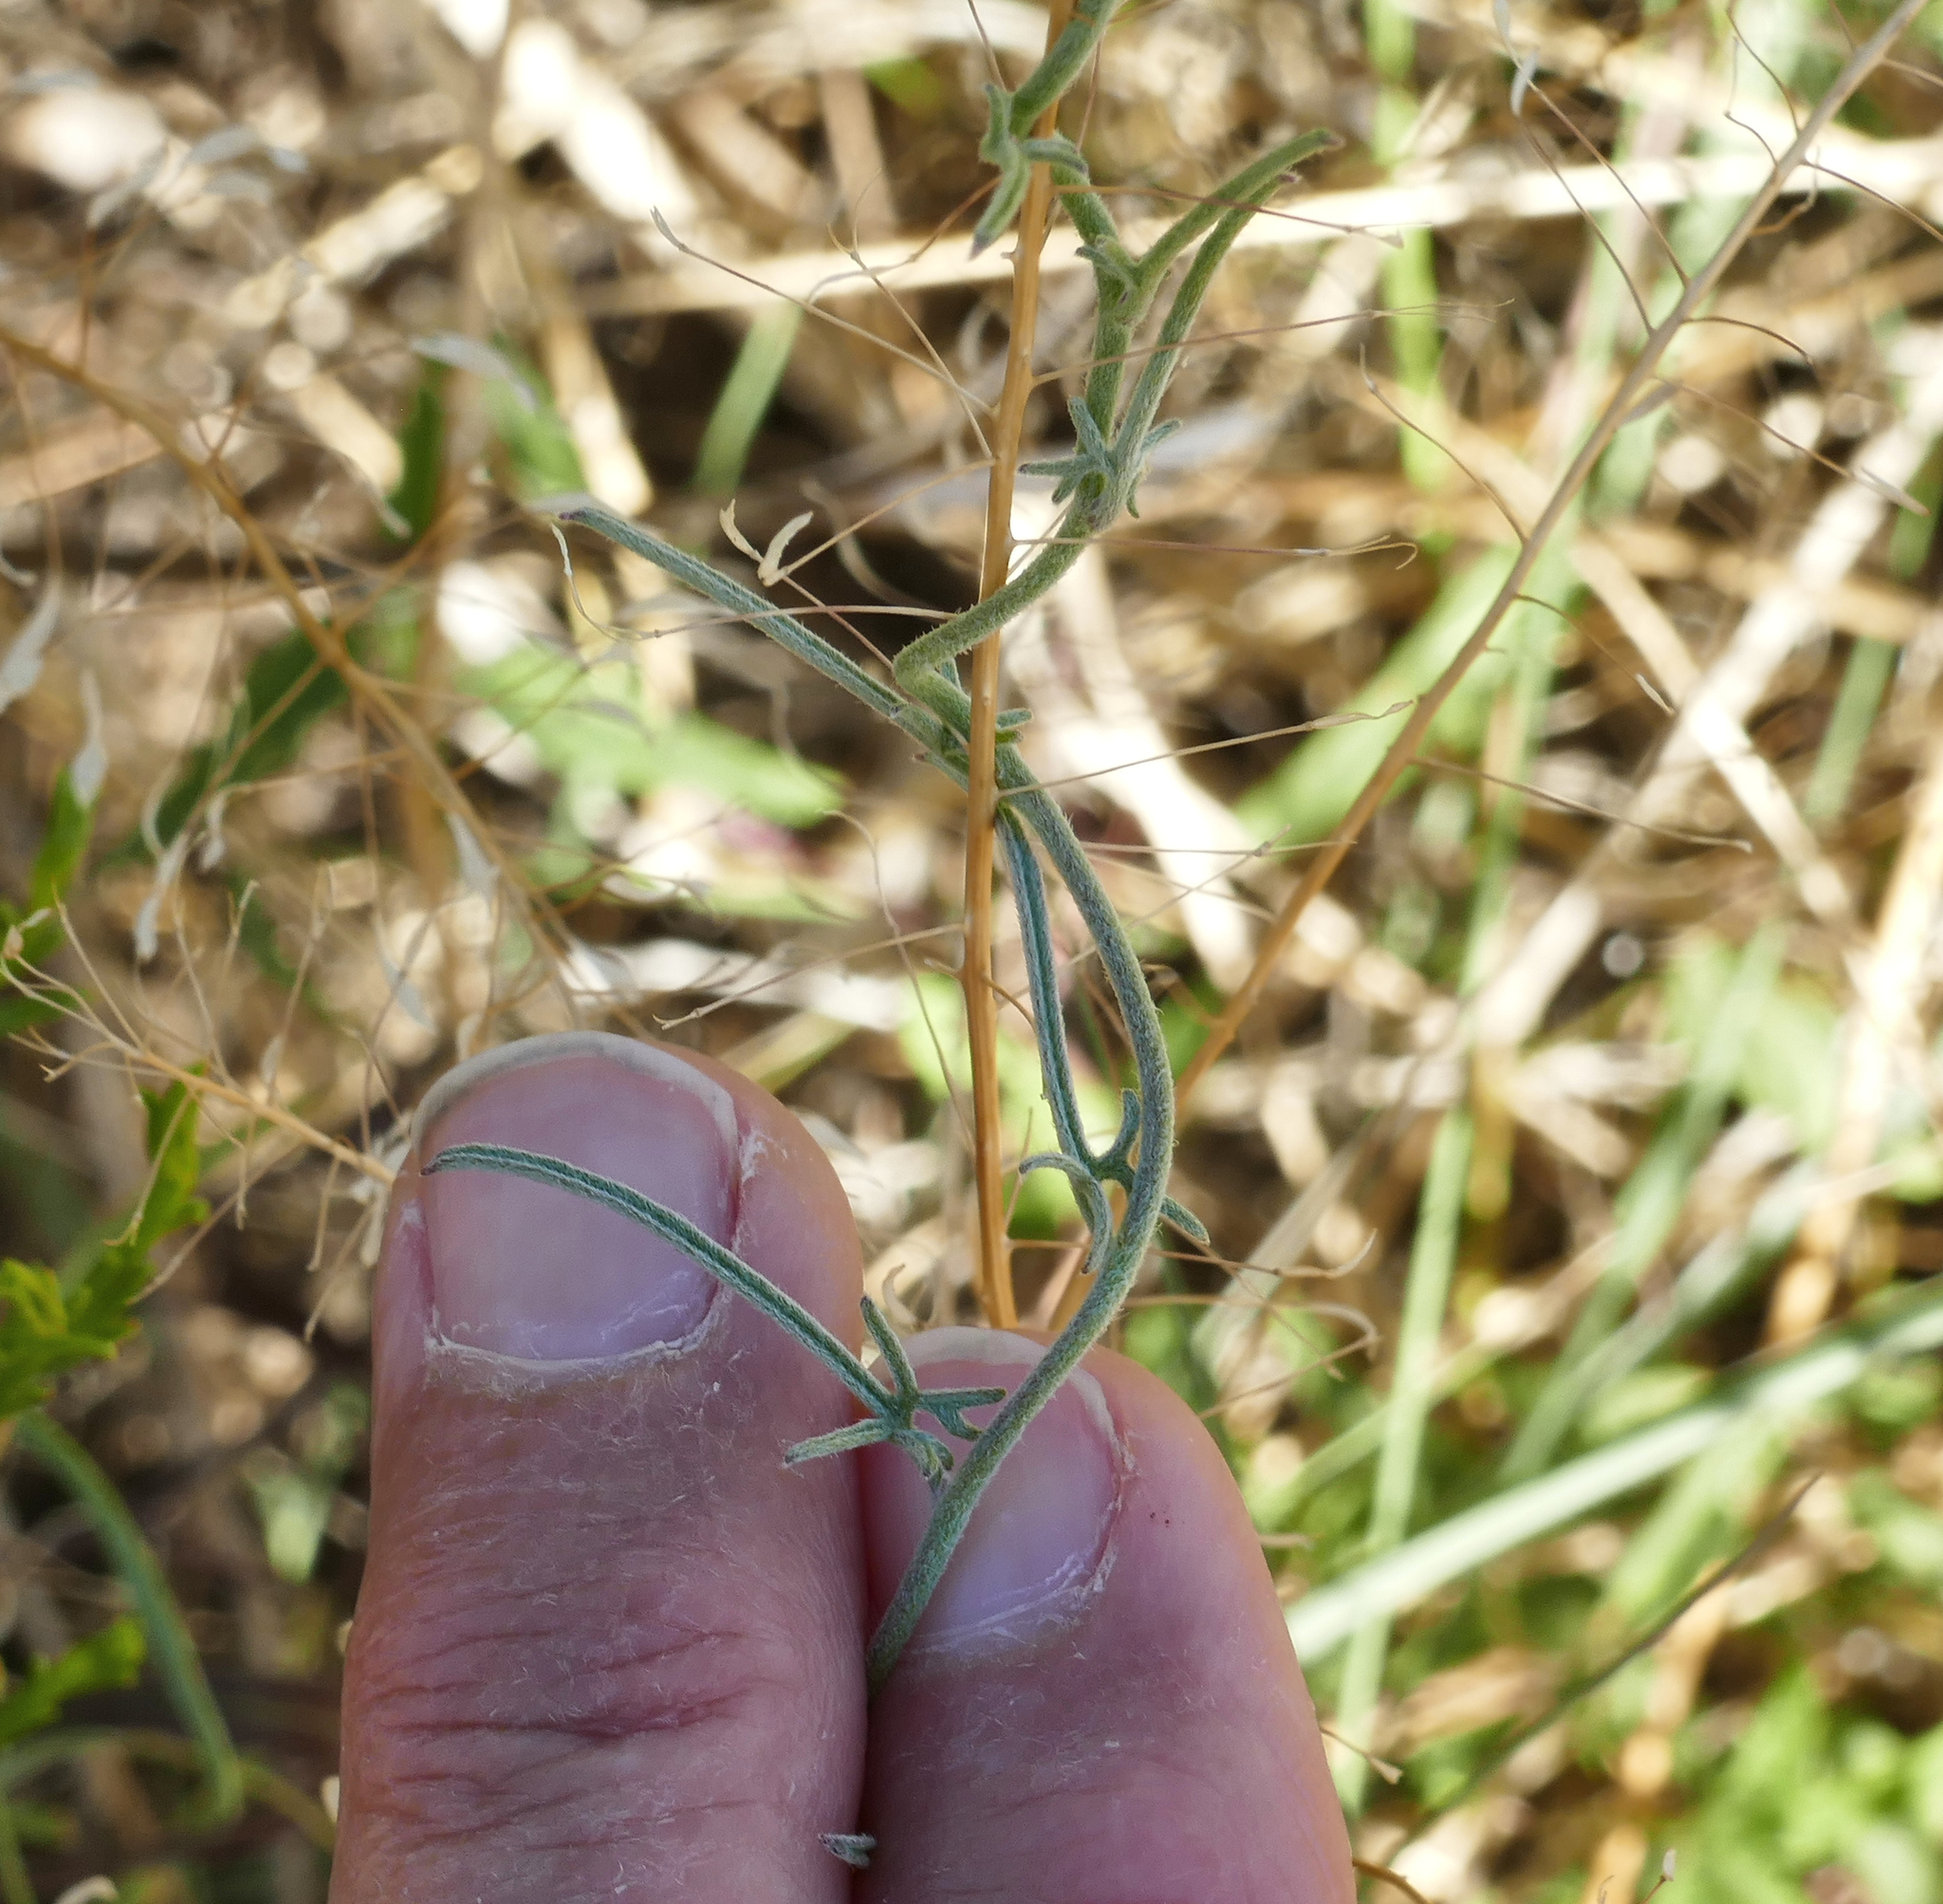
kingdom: Plantae
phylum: Tracheophyta
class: Magnoliopsida
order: Solanales
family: Convolvulaceae
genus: Convolvulus
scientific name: Convolvulus equitans
